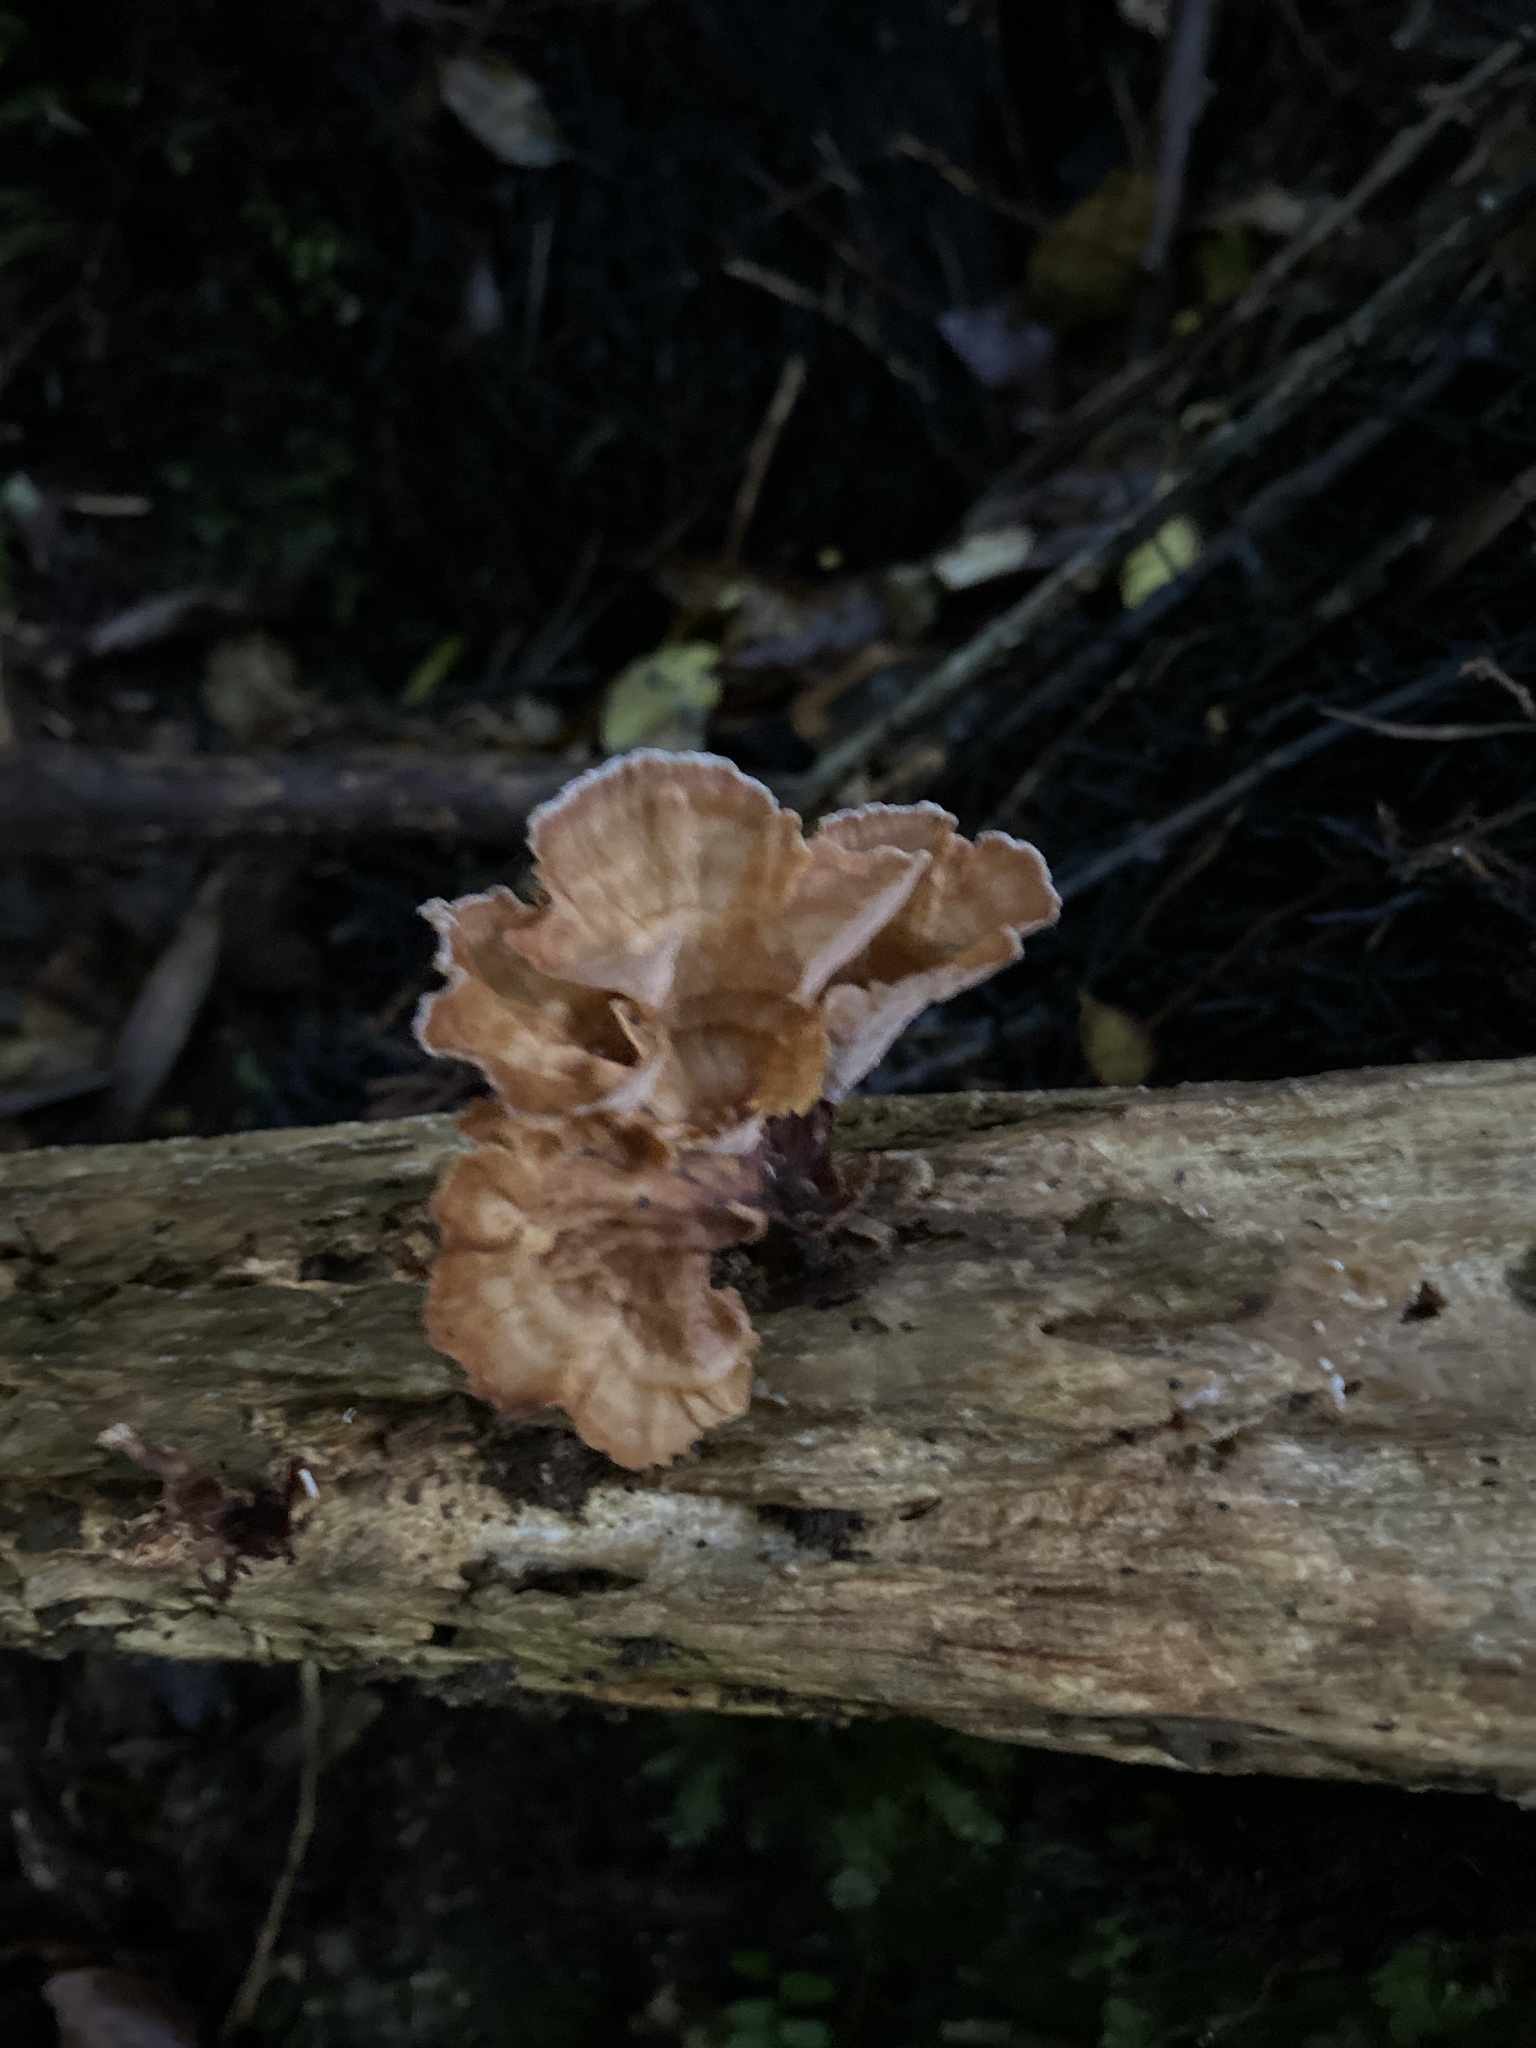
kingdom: Fungi
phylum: Basidiomycota
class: Agaricomycetes
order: Polyporales
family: Podoscyphaceae
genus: Podoscypha
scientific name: Podoscypha petalodes
